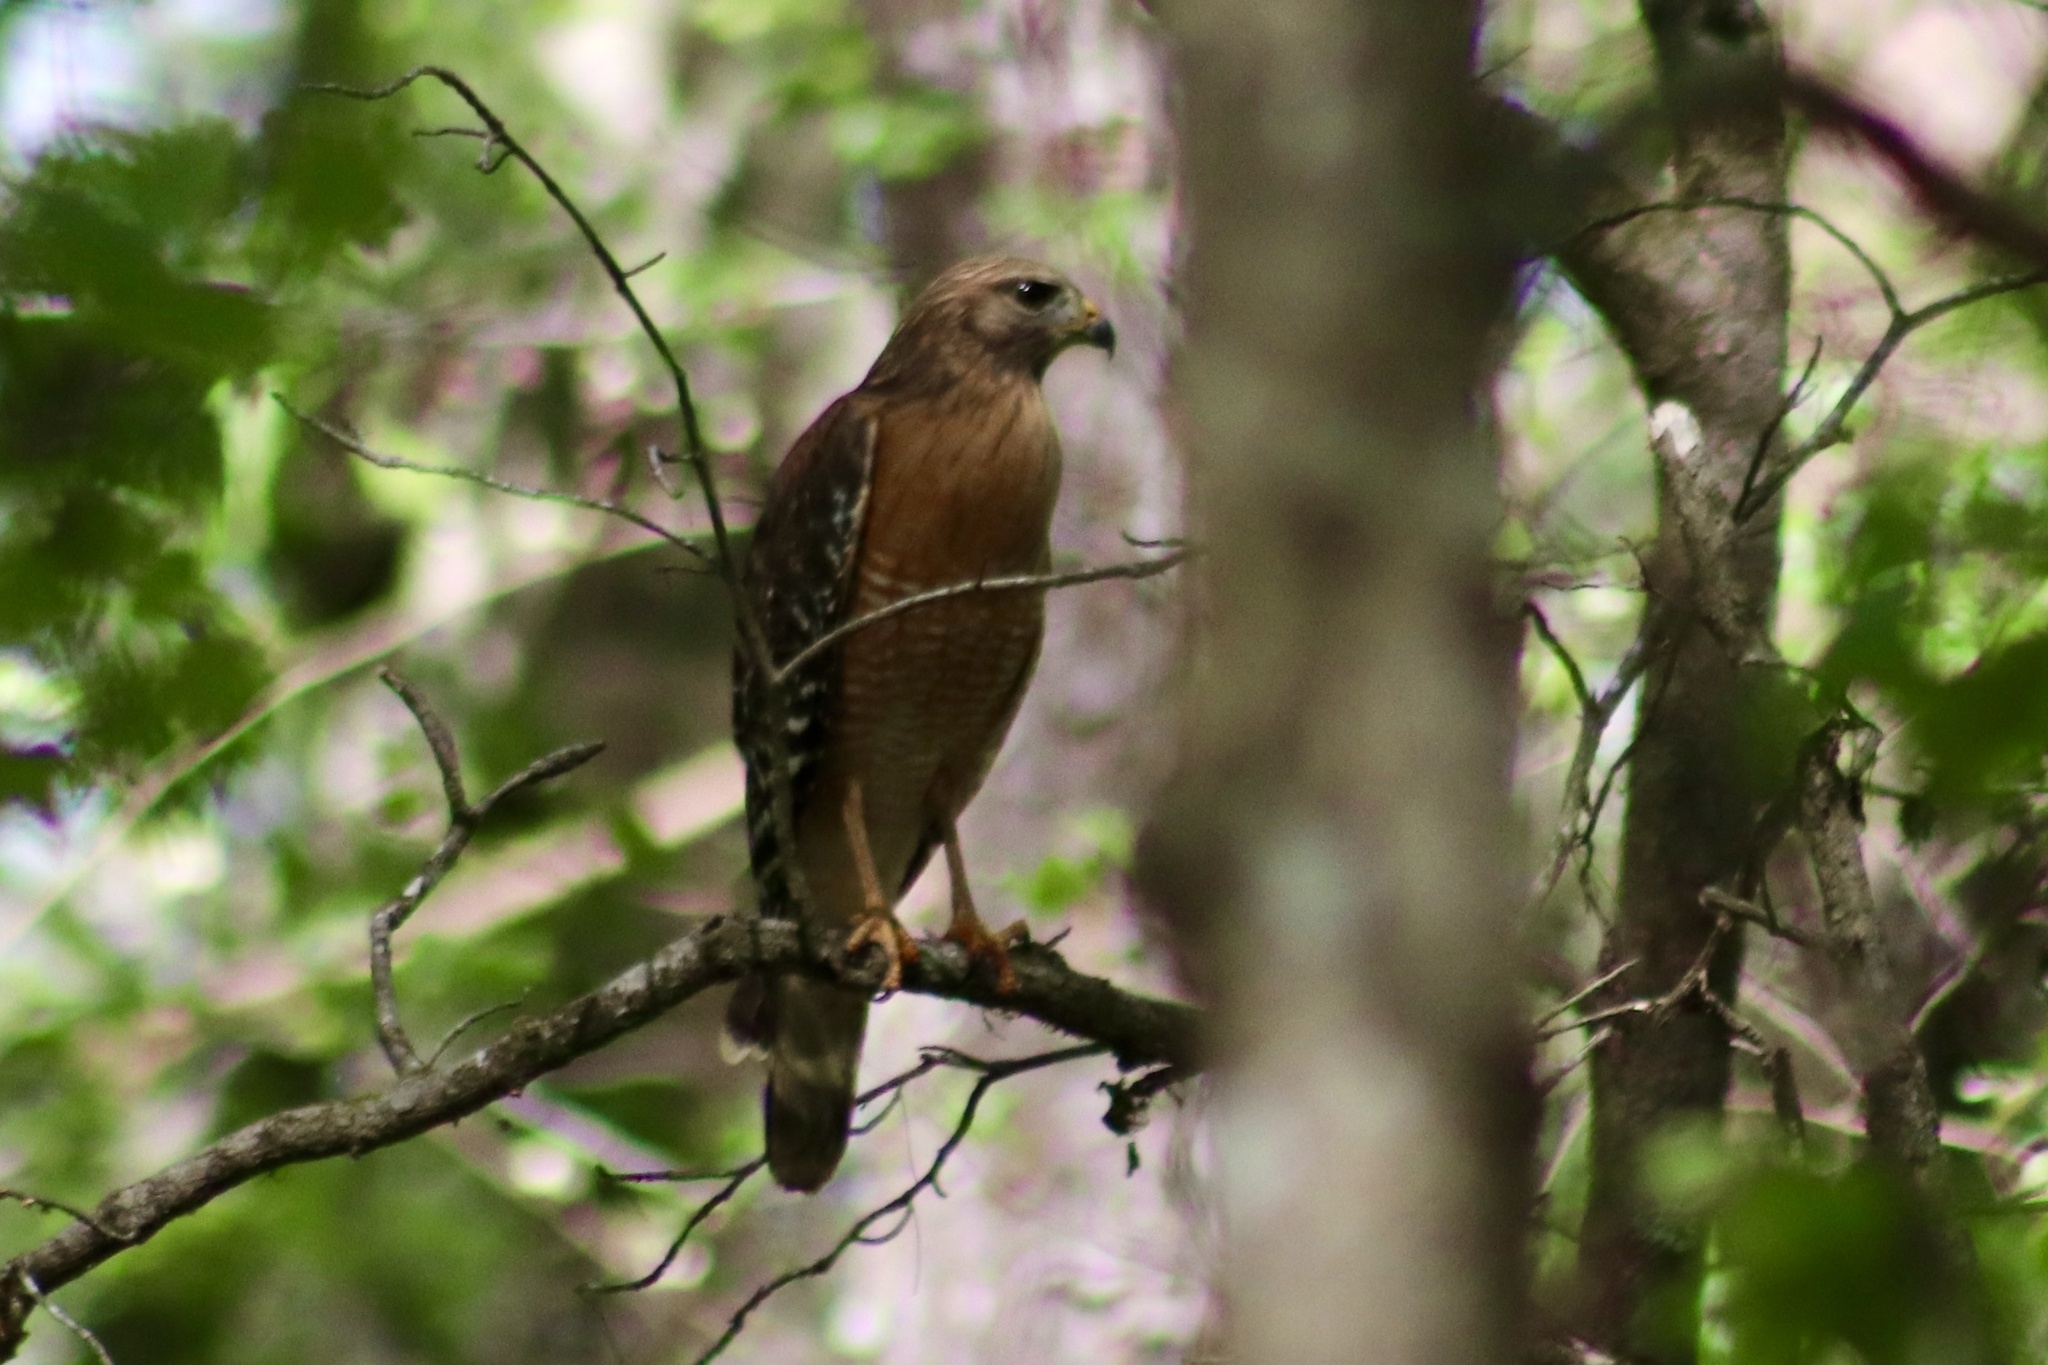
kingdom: Animalia
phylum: Chordata
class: Aves
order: Accipitriformes
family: Accipitridae
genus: Buteo
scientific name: Buteo lineatus
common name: Red-shouldered hawk
